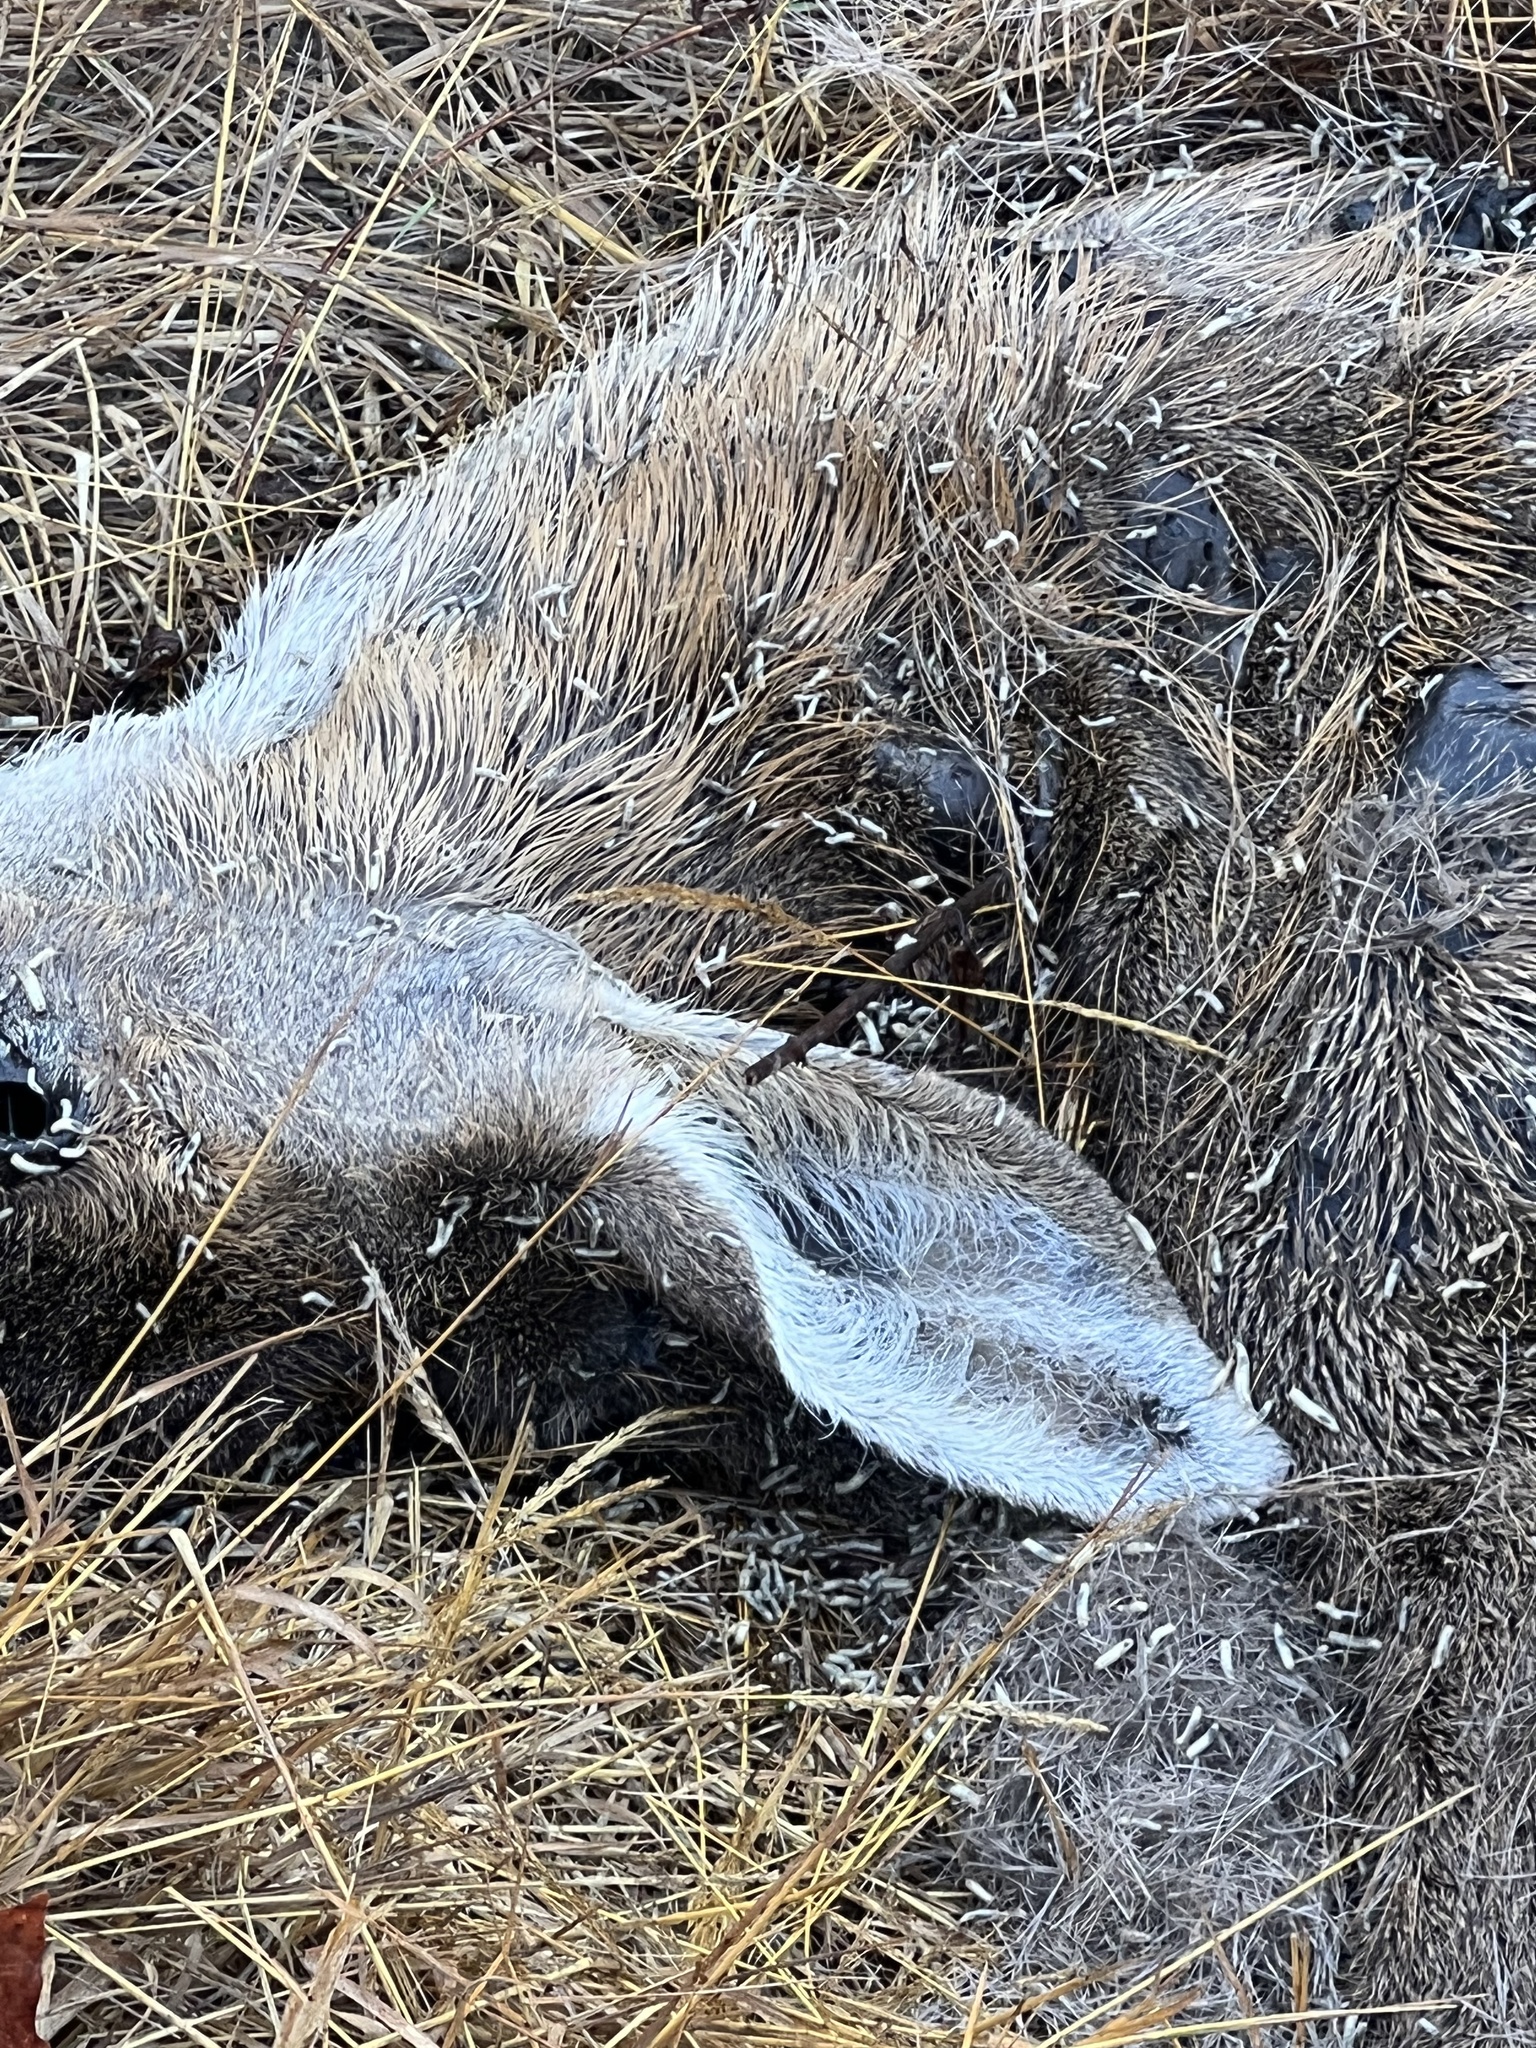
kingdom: Animalia
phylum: Chordata
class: Mammalia
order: Artiodactyla
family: Cervidae
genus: Odocoileus
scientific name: Odocoileus hemionus
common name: Mule deer
